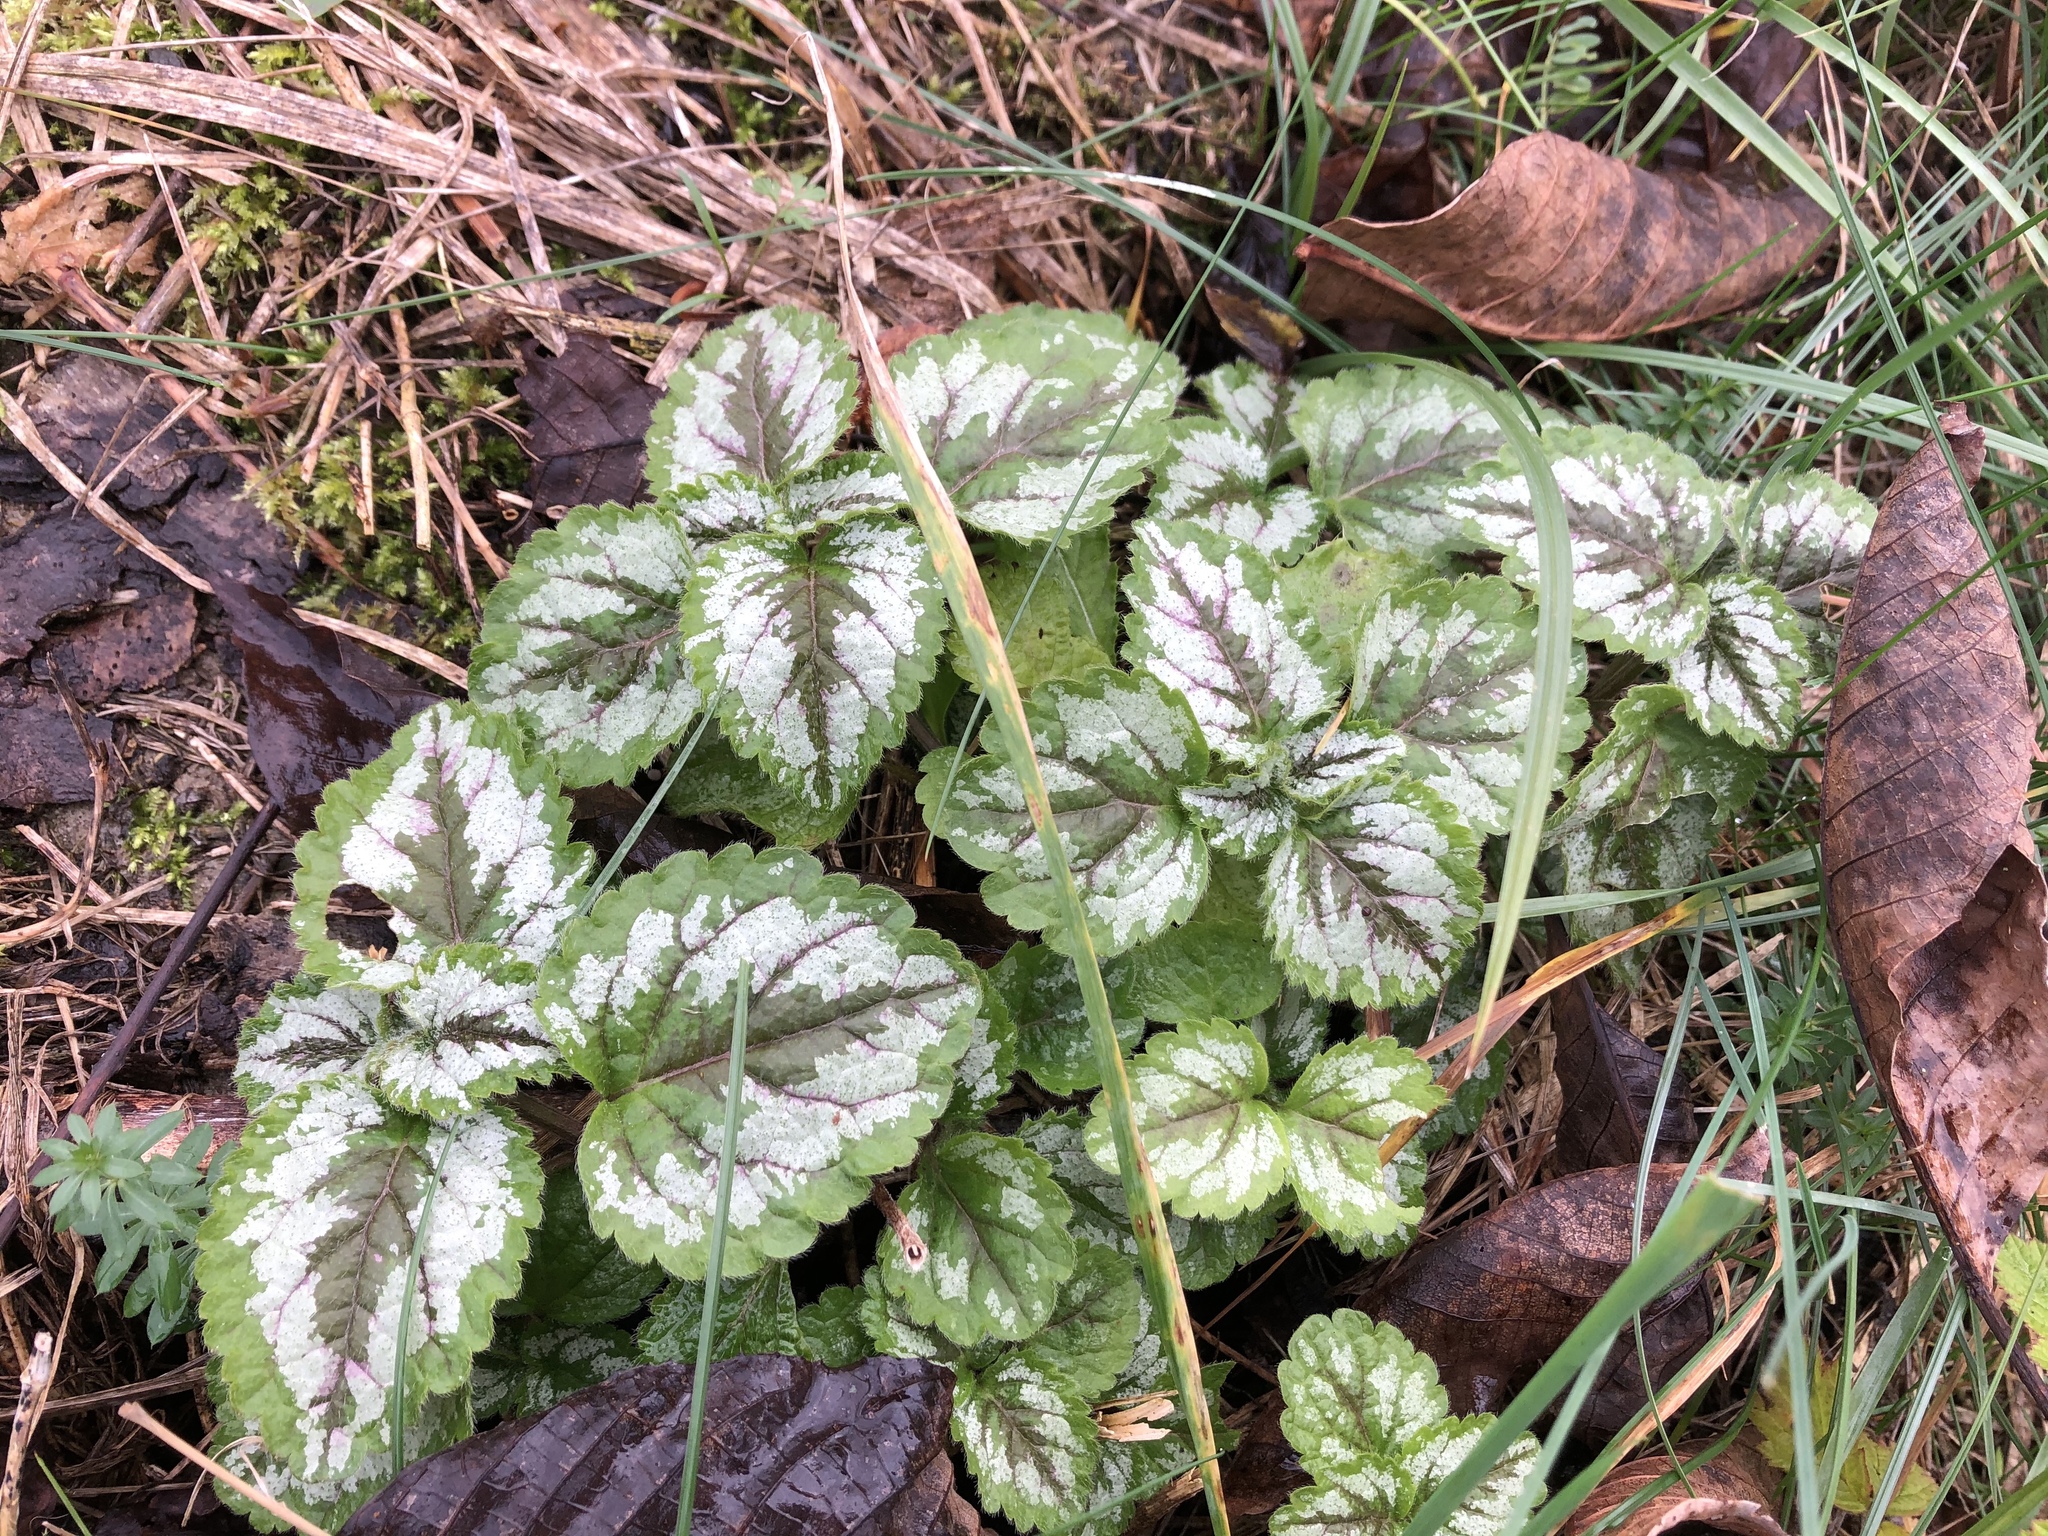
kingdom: Plantae
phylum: Tracheophyta
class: Magnoliopsida
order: Lamiales
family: Lamiaceae
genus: Lamium
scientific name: Lamium galeobdolon
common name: Yellow archangel
